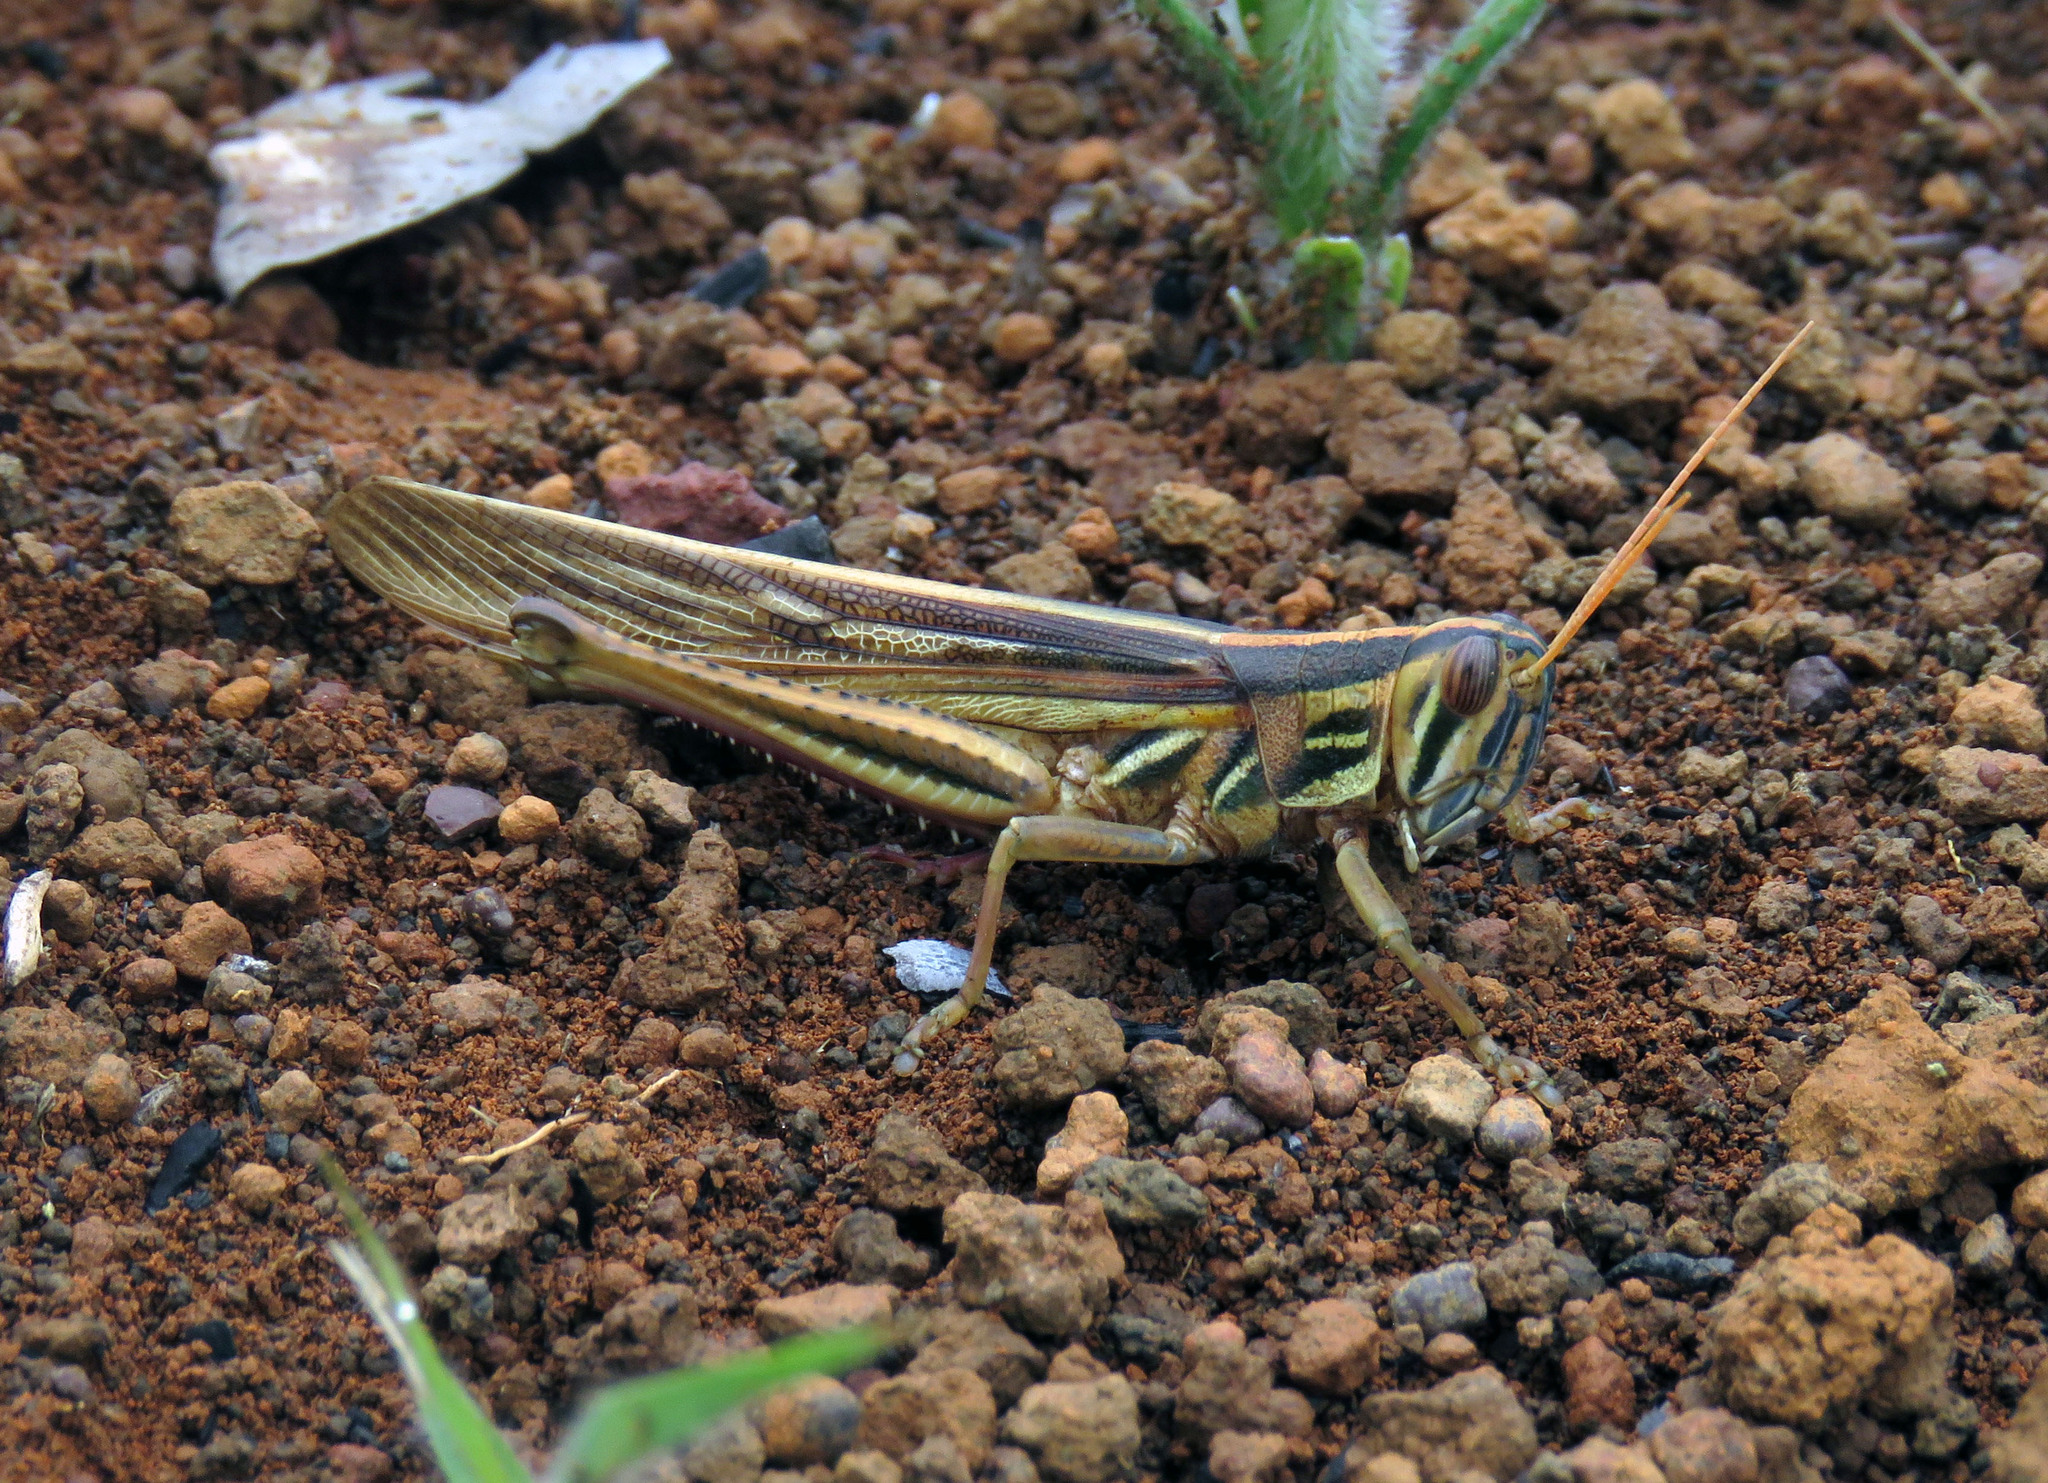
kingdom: Animalia
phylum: Arthropoda
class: Insecta
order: Orthoptera
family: Acrididae
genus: Schistocerca
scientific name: Schistocerca pallens
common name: Bird grasshopper
